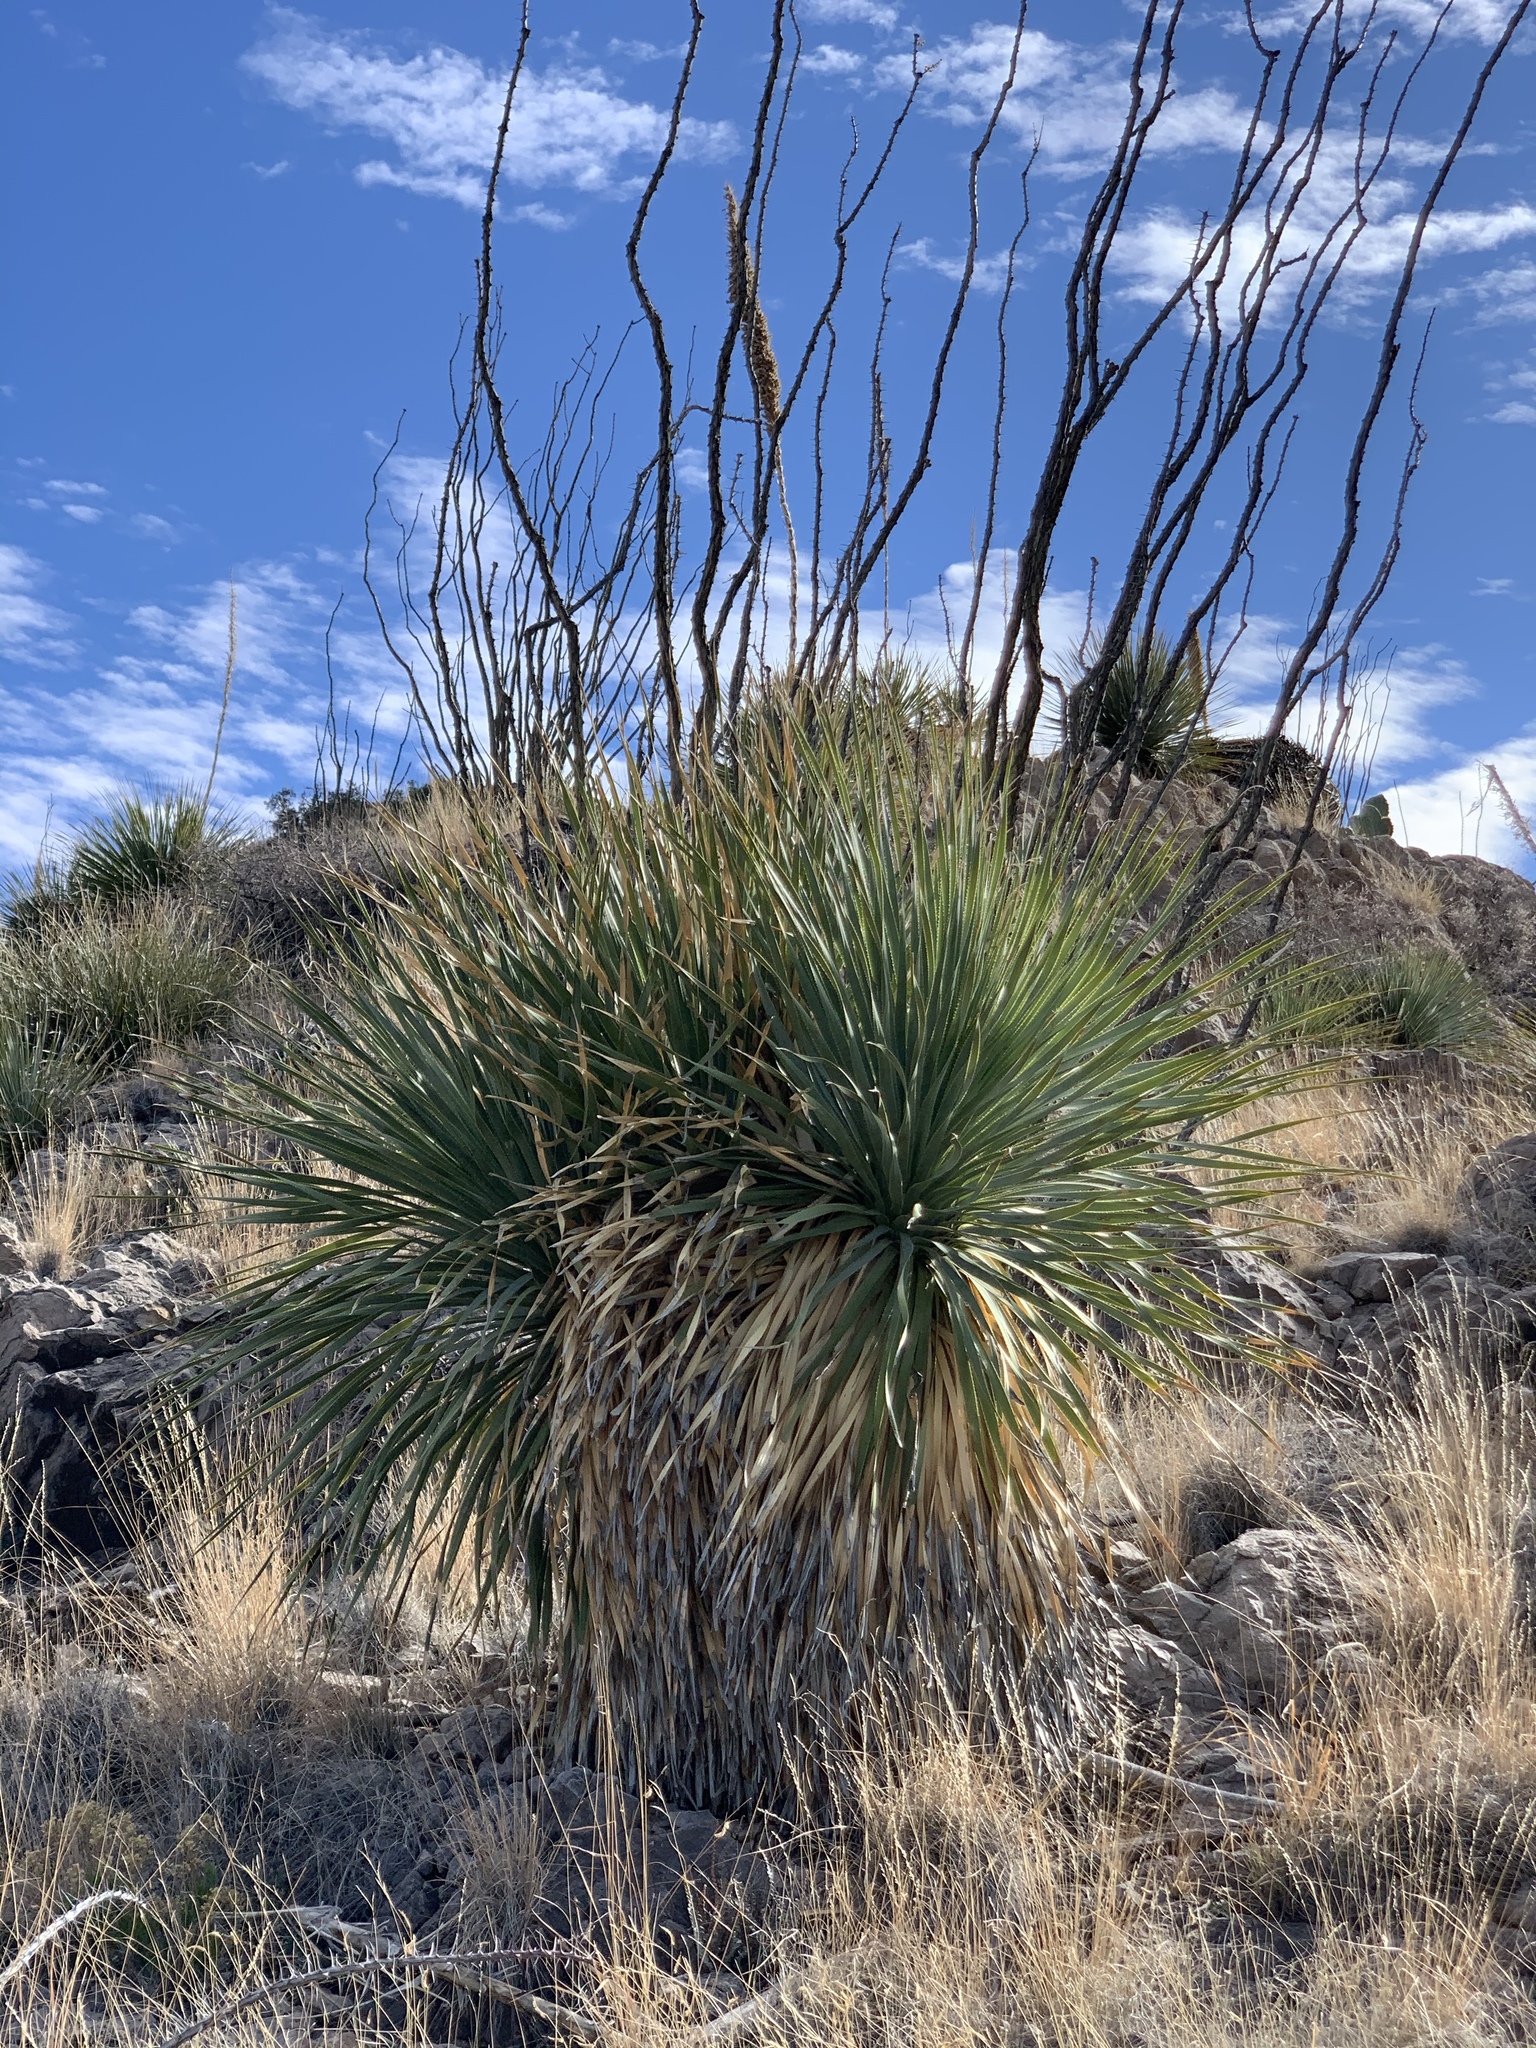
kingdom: Plantae
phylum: Tracheophyta
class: Liliopsida
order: Asparagales
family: Asparagaceae
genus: Dasylirion
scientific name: Dasylirion wheeleri
